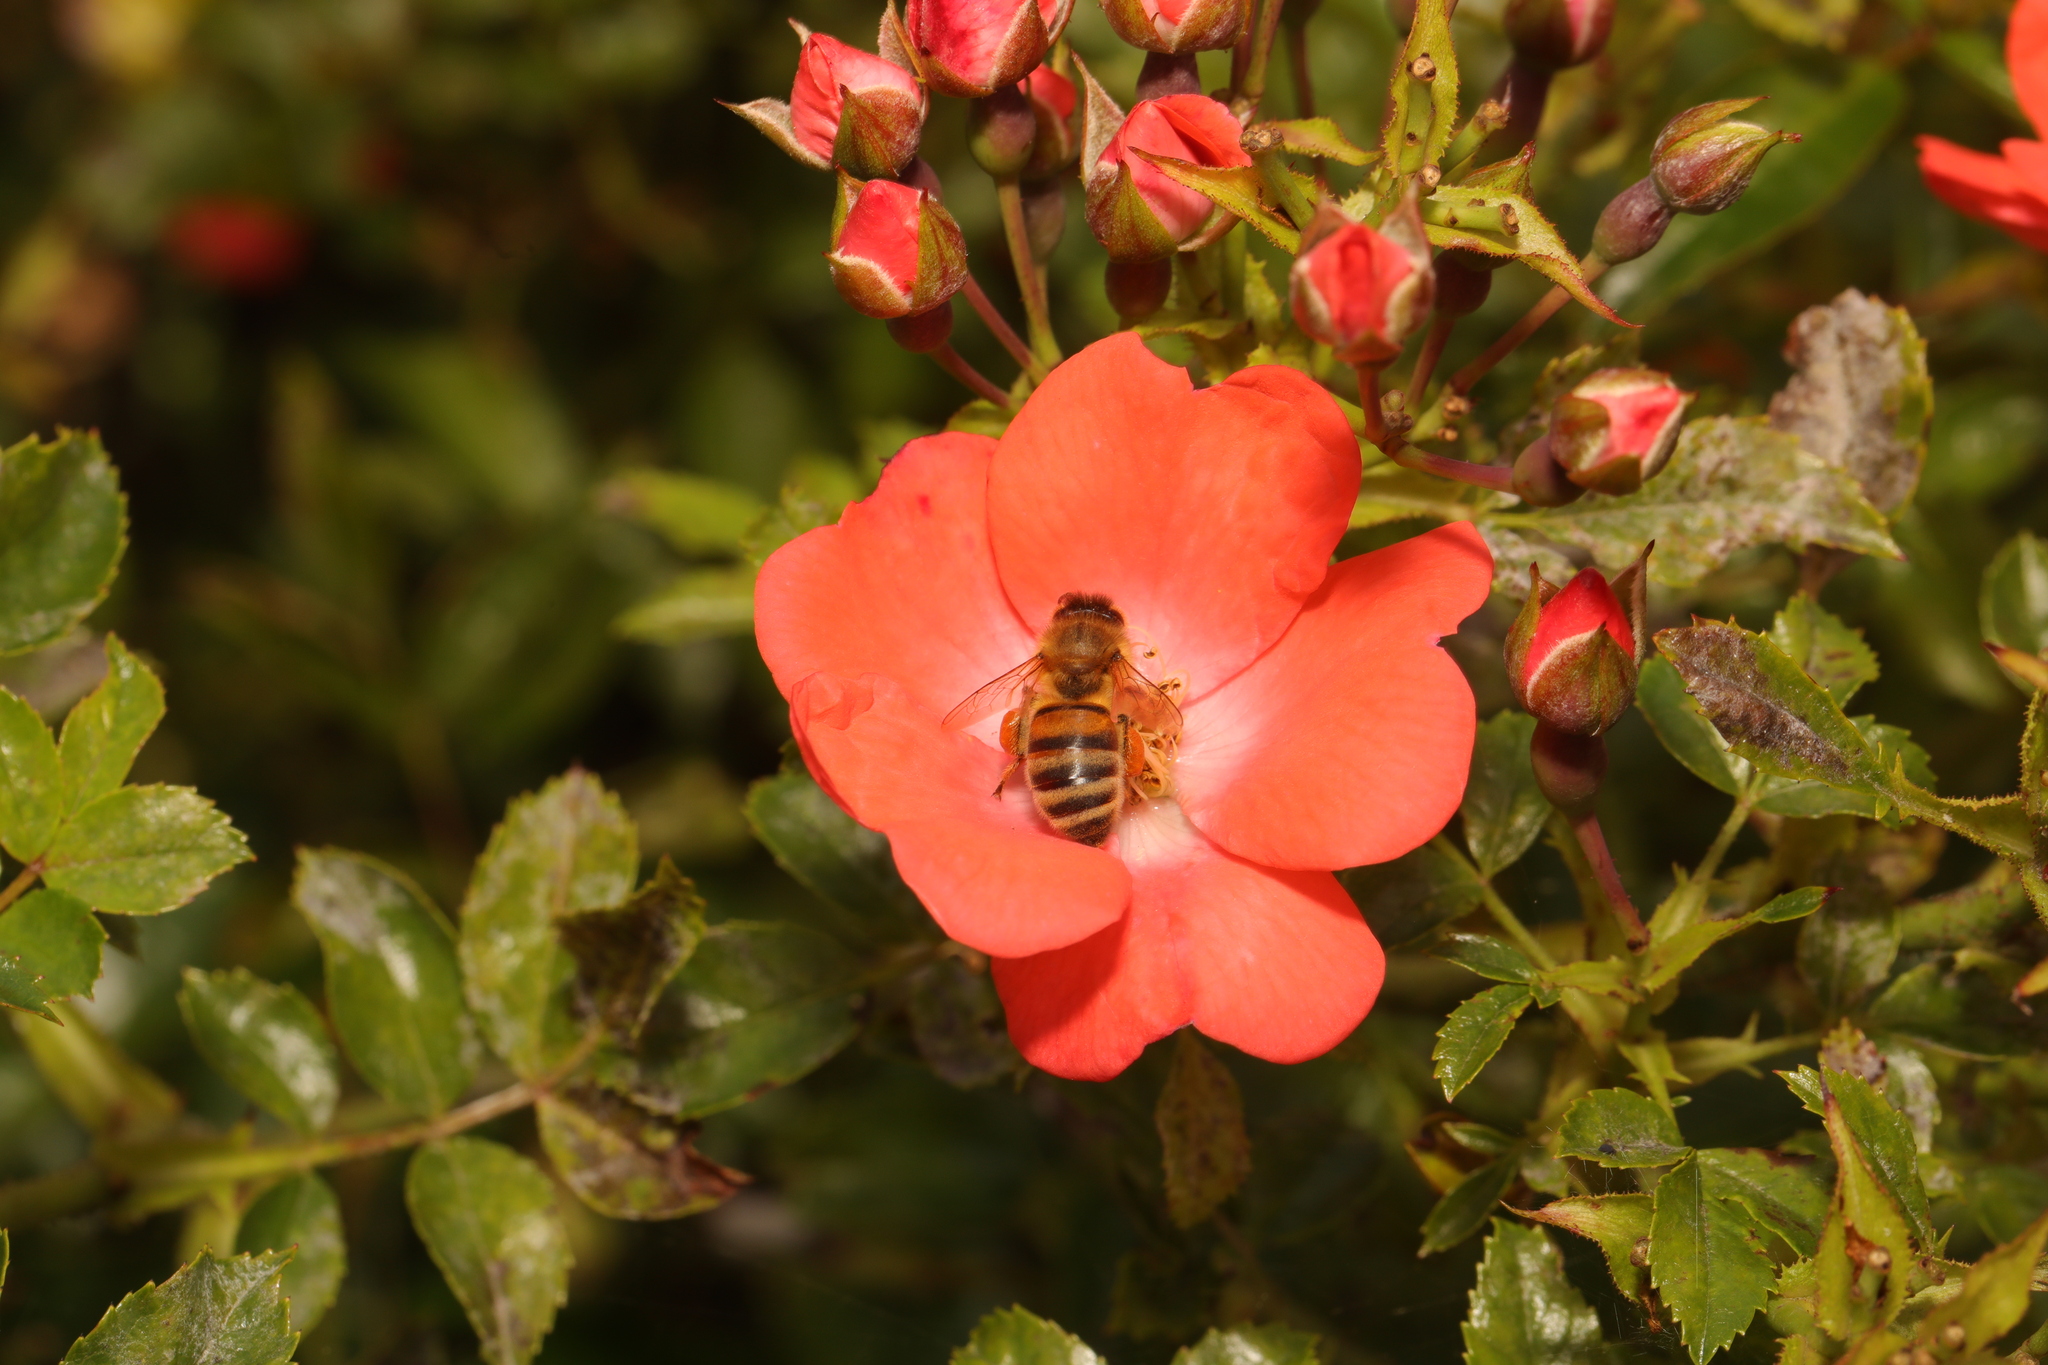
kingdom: Animalia
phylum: Arthropoda
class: Insecta
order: Hymenoptera
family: Apidae
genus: Apis
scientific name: Apis mellifera
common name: Honey bee
